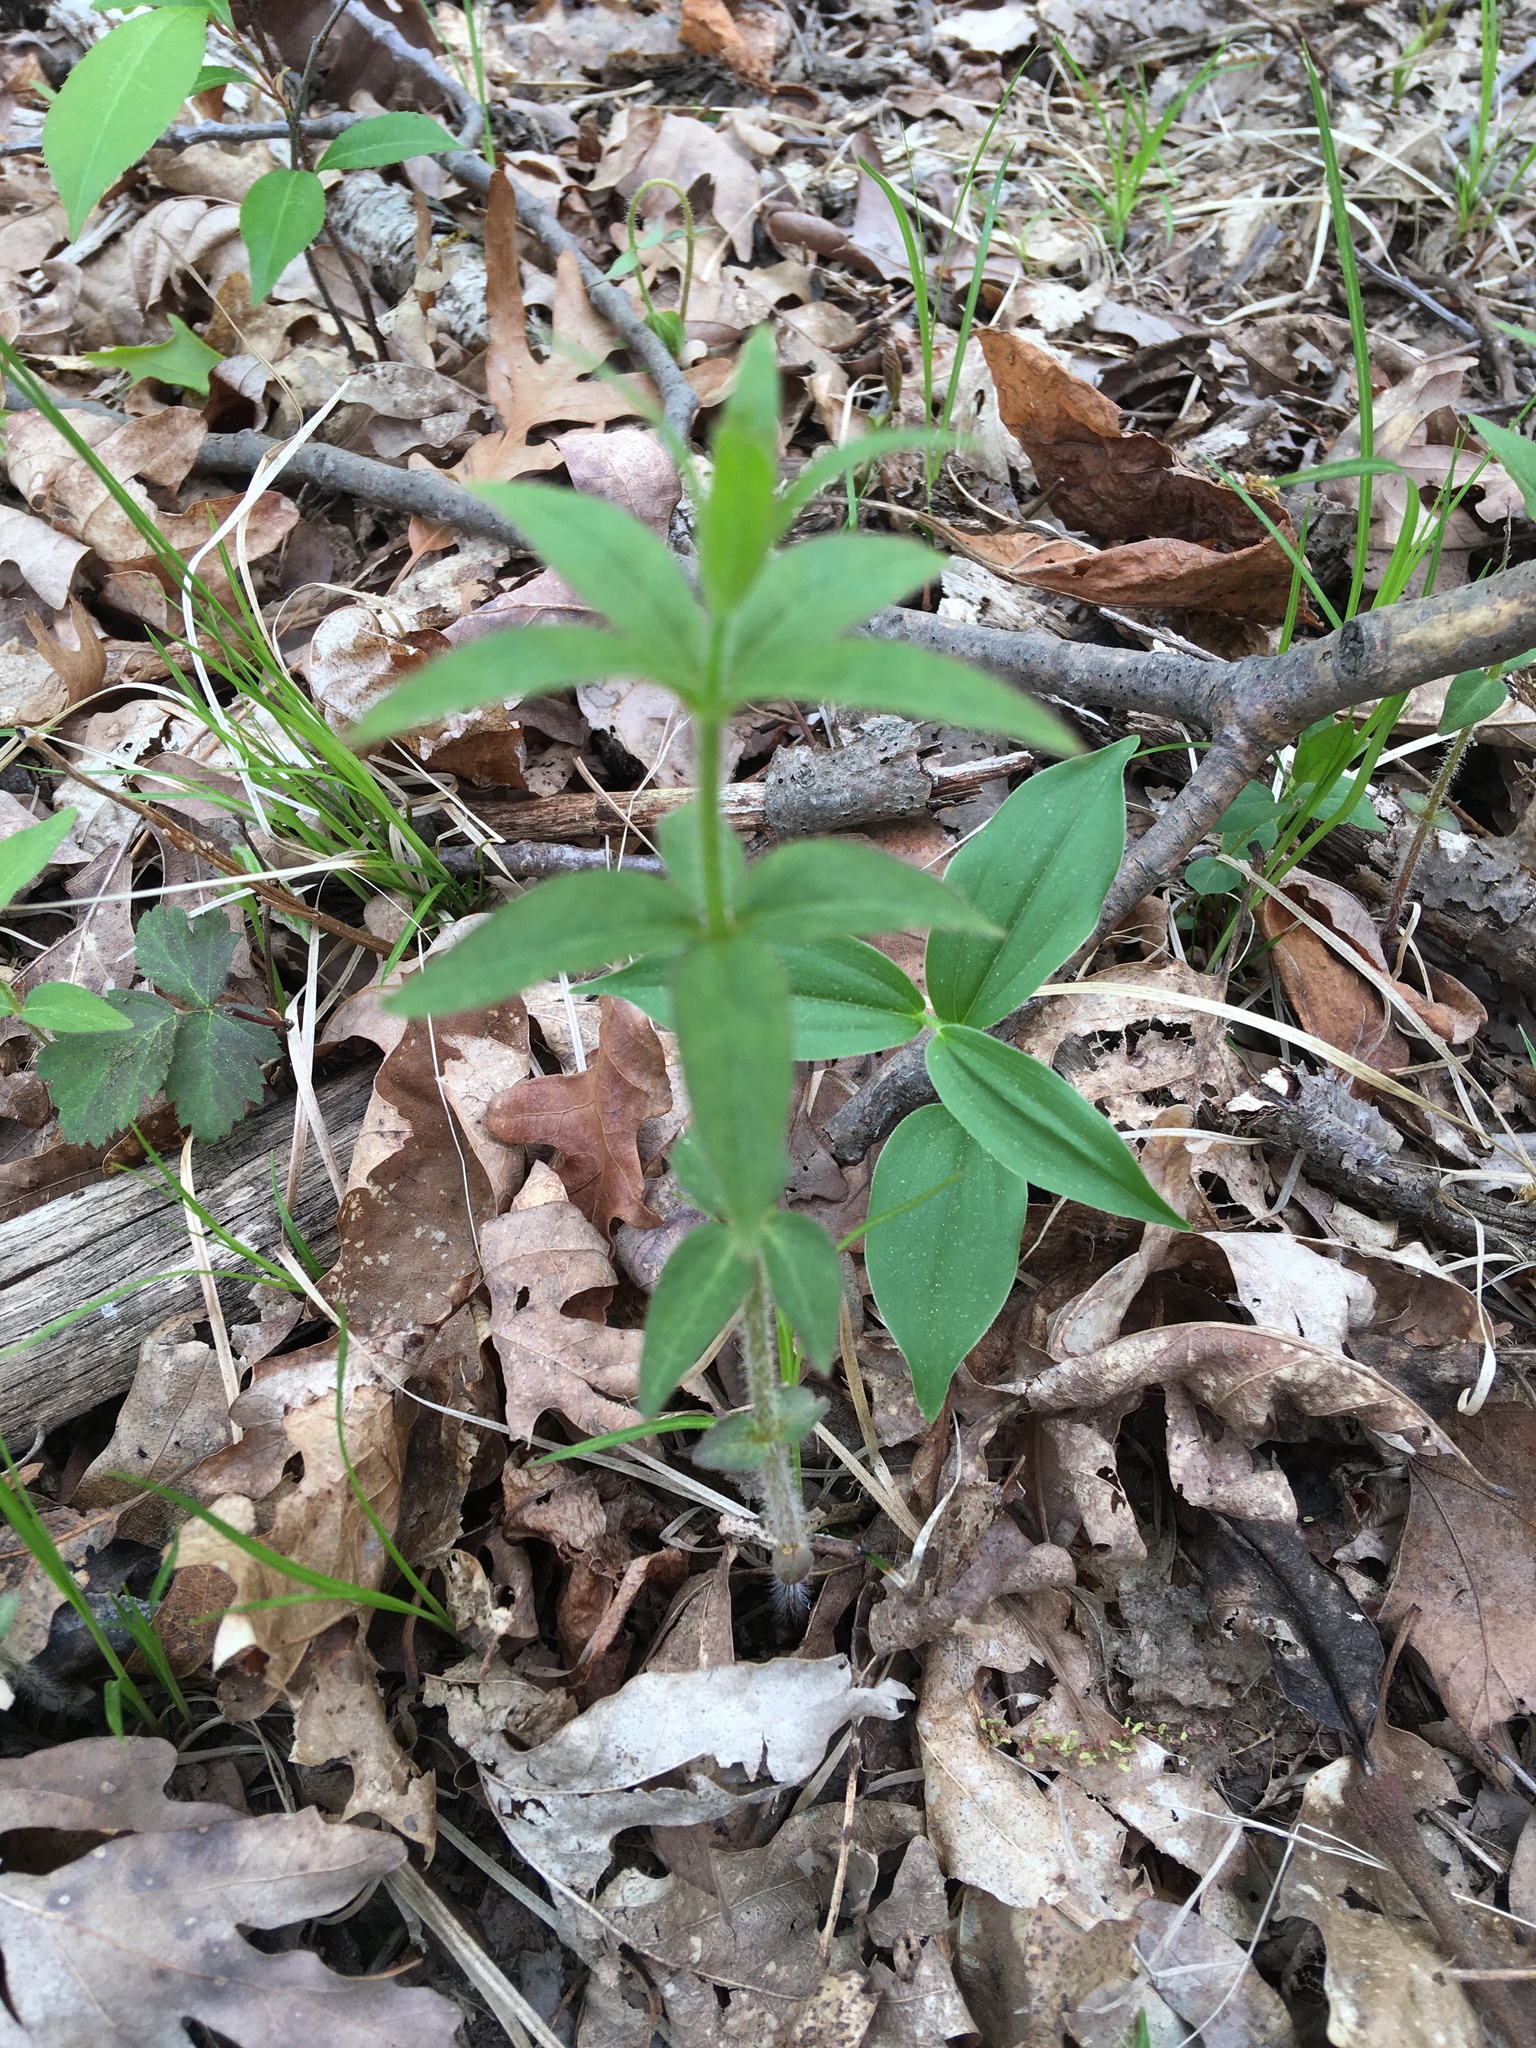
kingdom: Plantae
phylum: Tracheophyta
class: Magnoliopsida
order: Ericales
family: Primulaceae
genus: Lysimachia
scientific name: Lysimachia quadrifolia
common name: Whorled loosestrife
